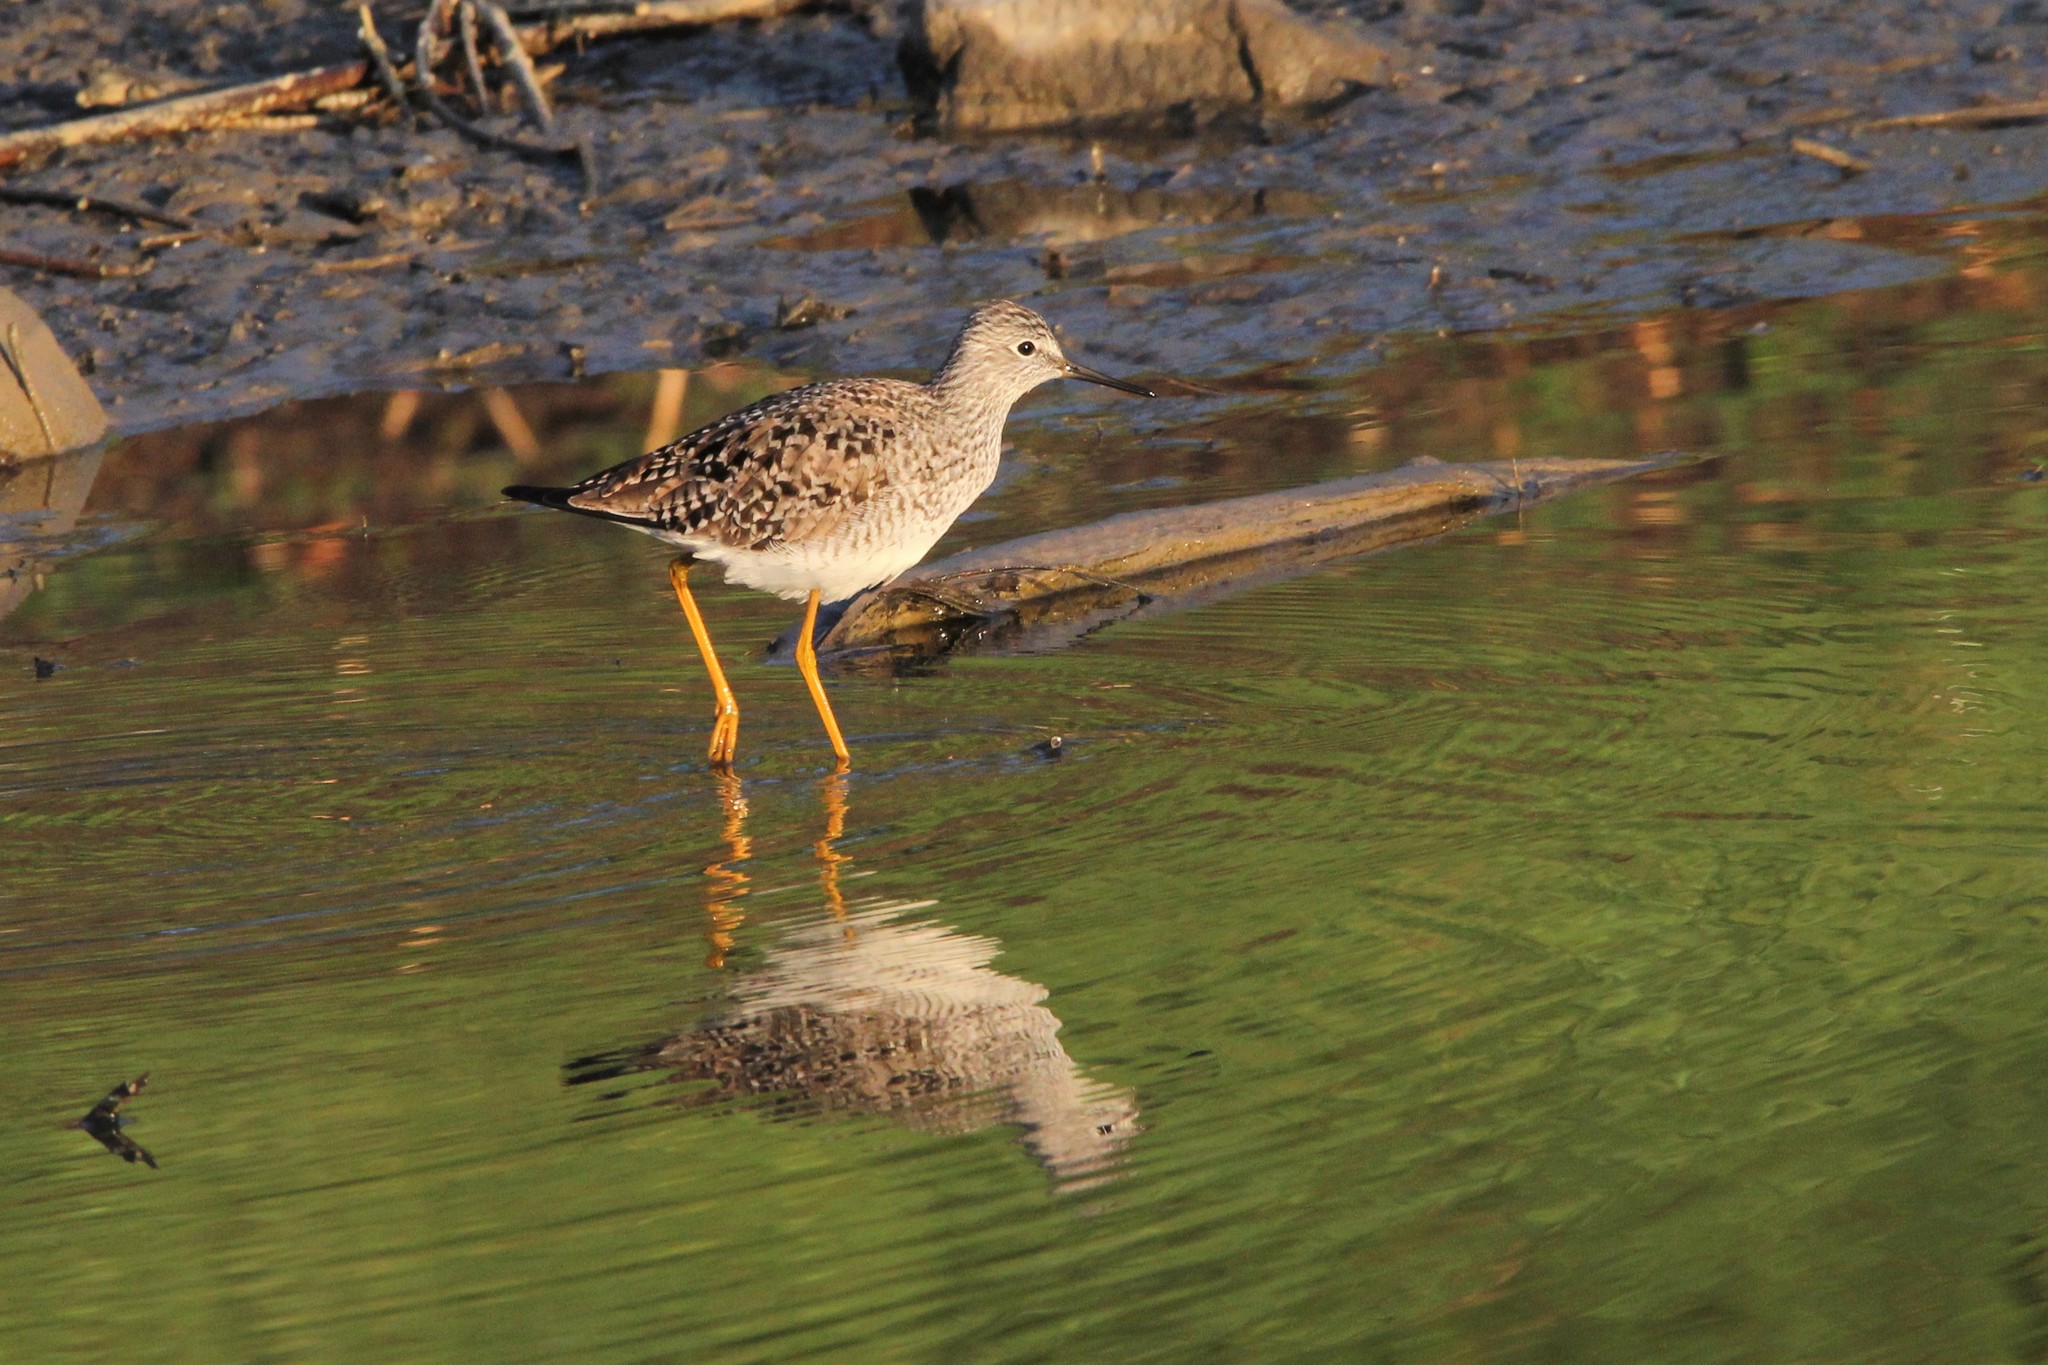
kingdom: Animalia
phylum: Chordata
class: Aves
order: Charadriiformes
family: Scolopacidae
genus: Tringa
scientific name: Tringa flavipes
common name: Lesser yellowlegs
